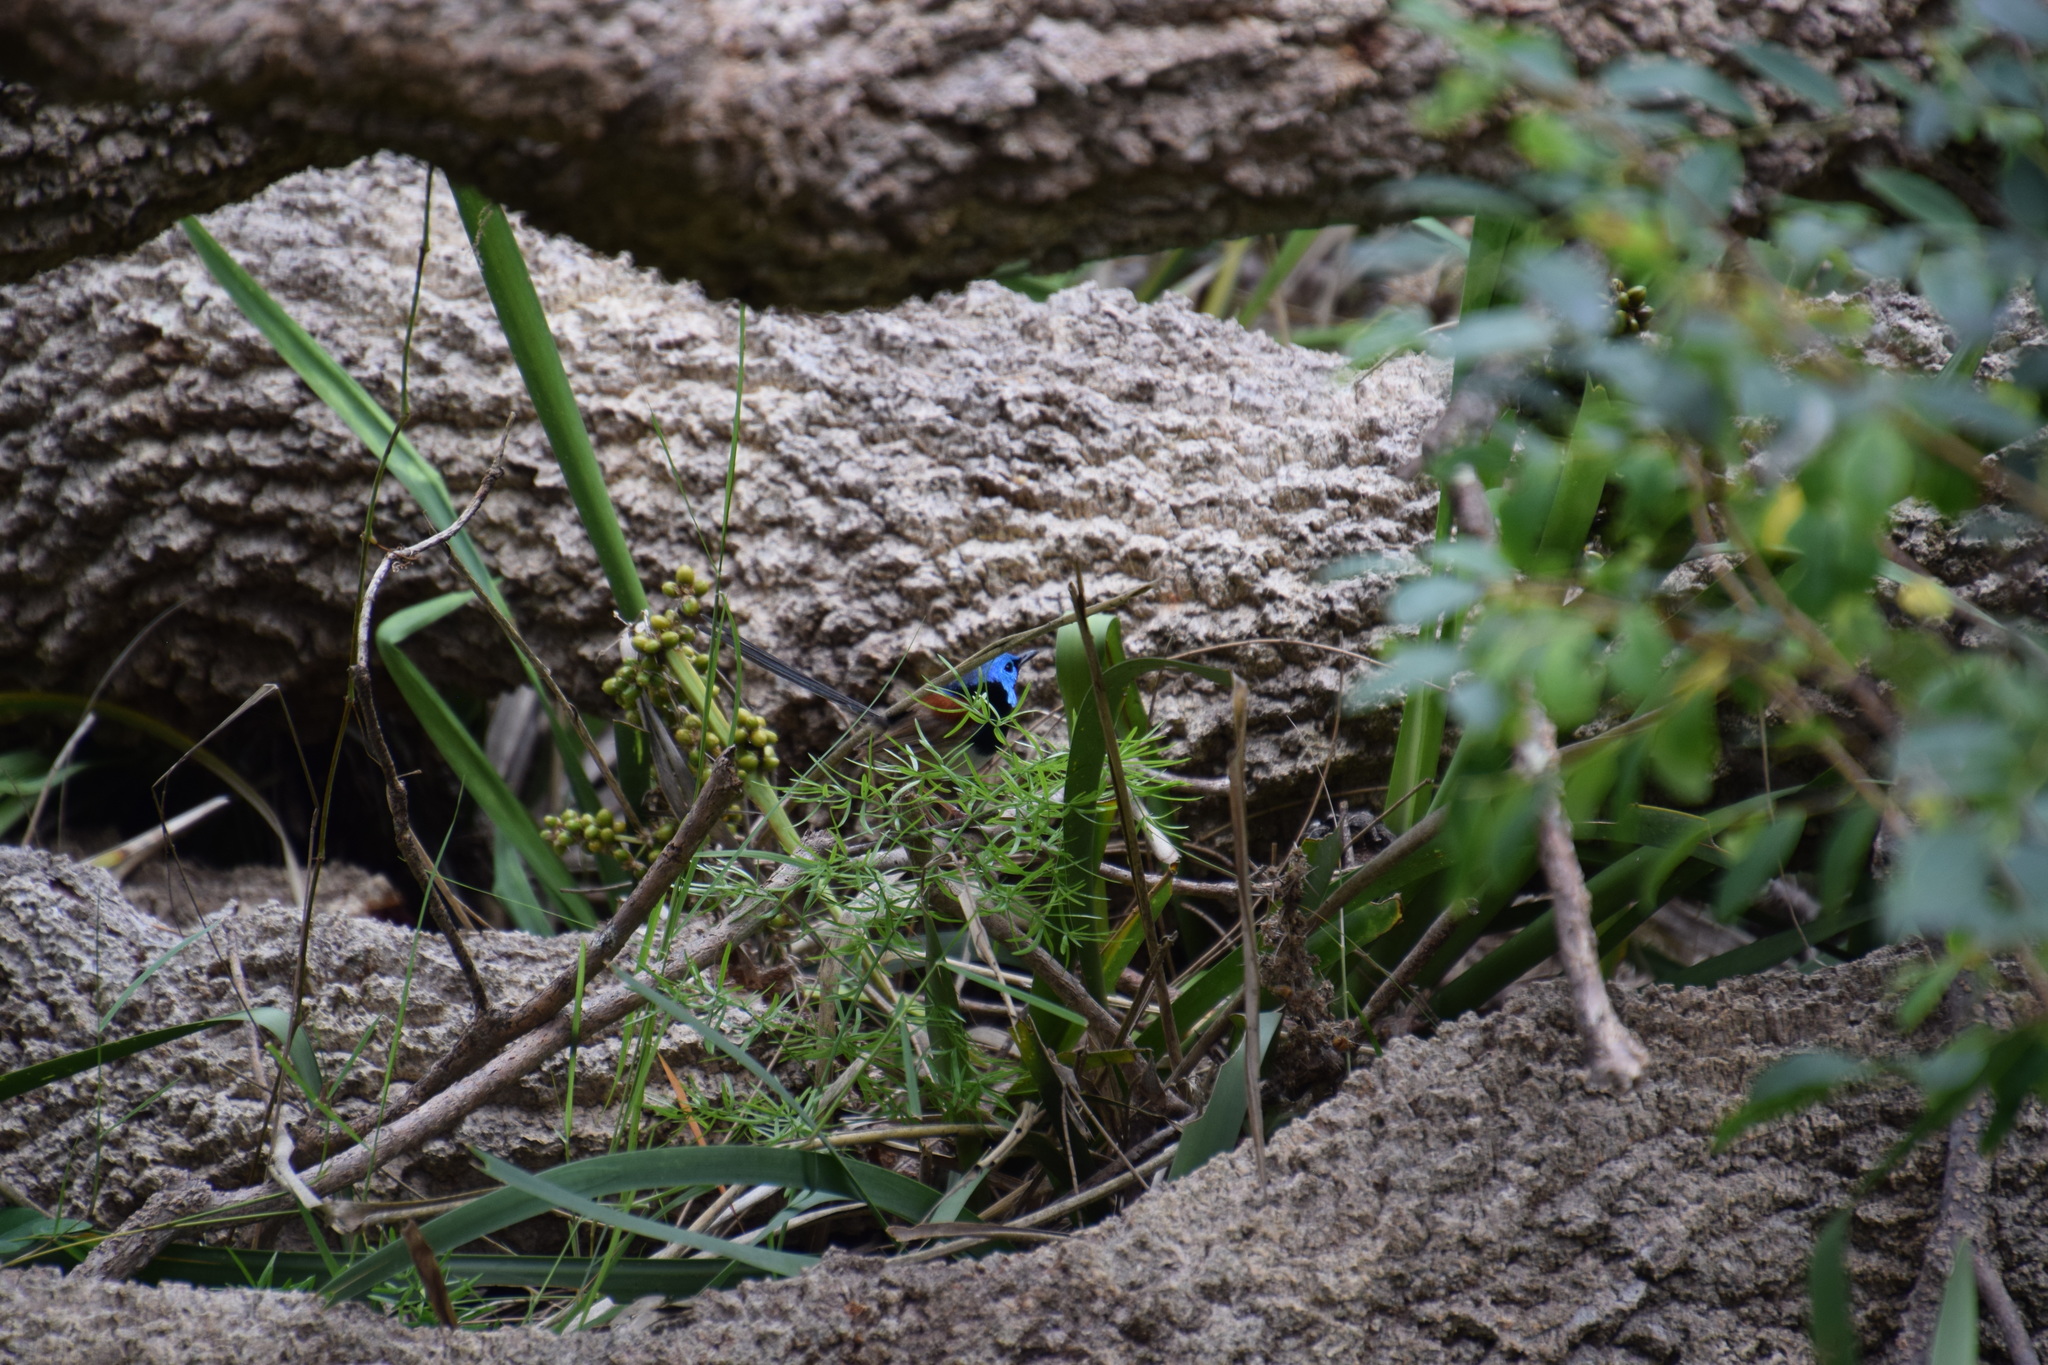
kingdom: Animalia
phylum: Chordata
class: Aves
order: Passeriformes
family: Maluridae
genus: Malurus
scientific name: Malurus lamberti
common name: Variegated fairywren
